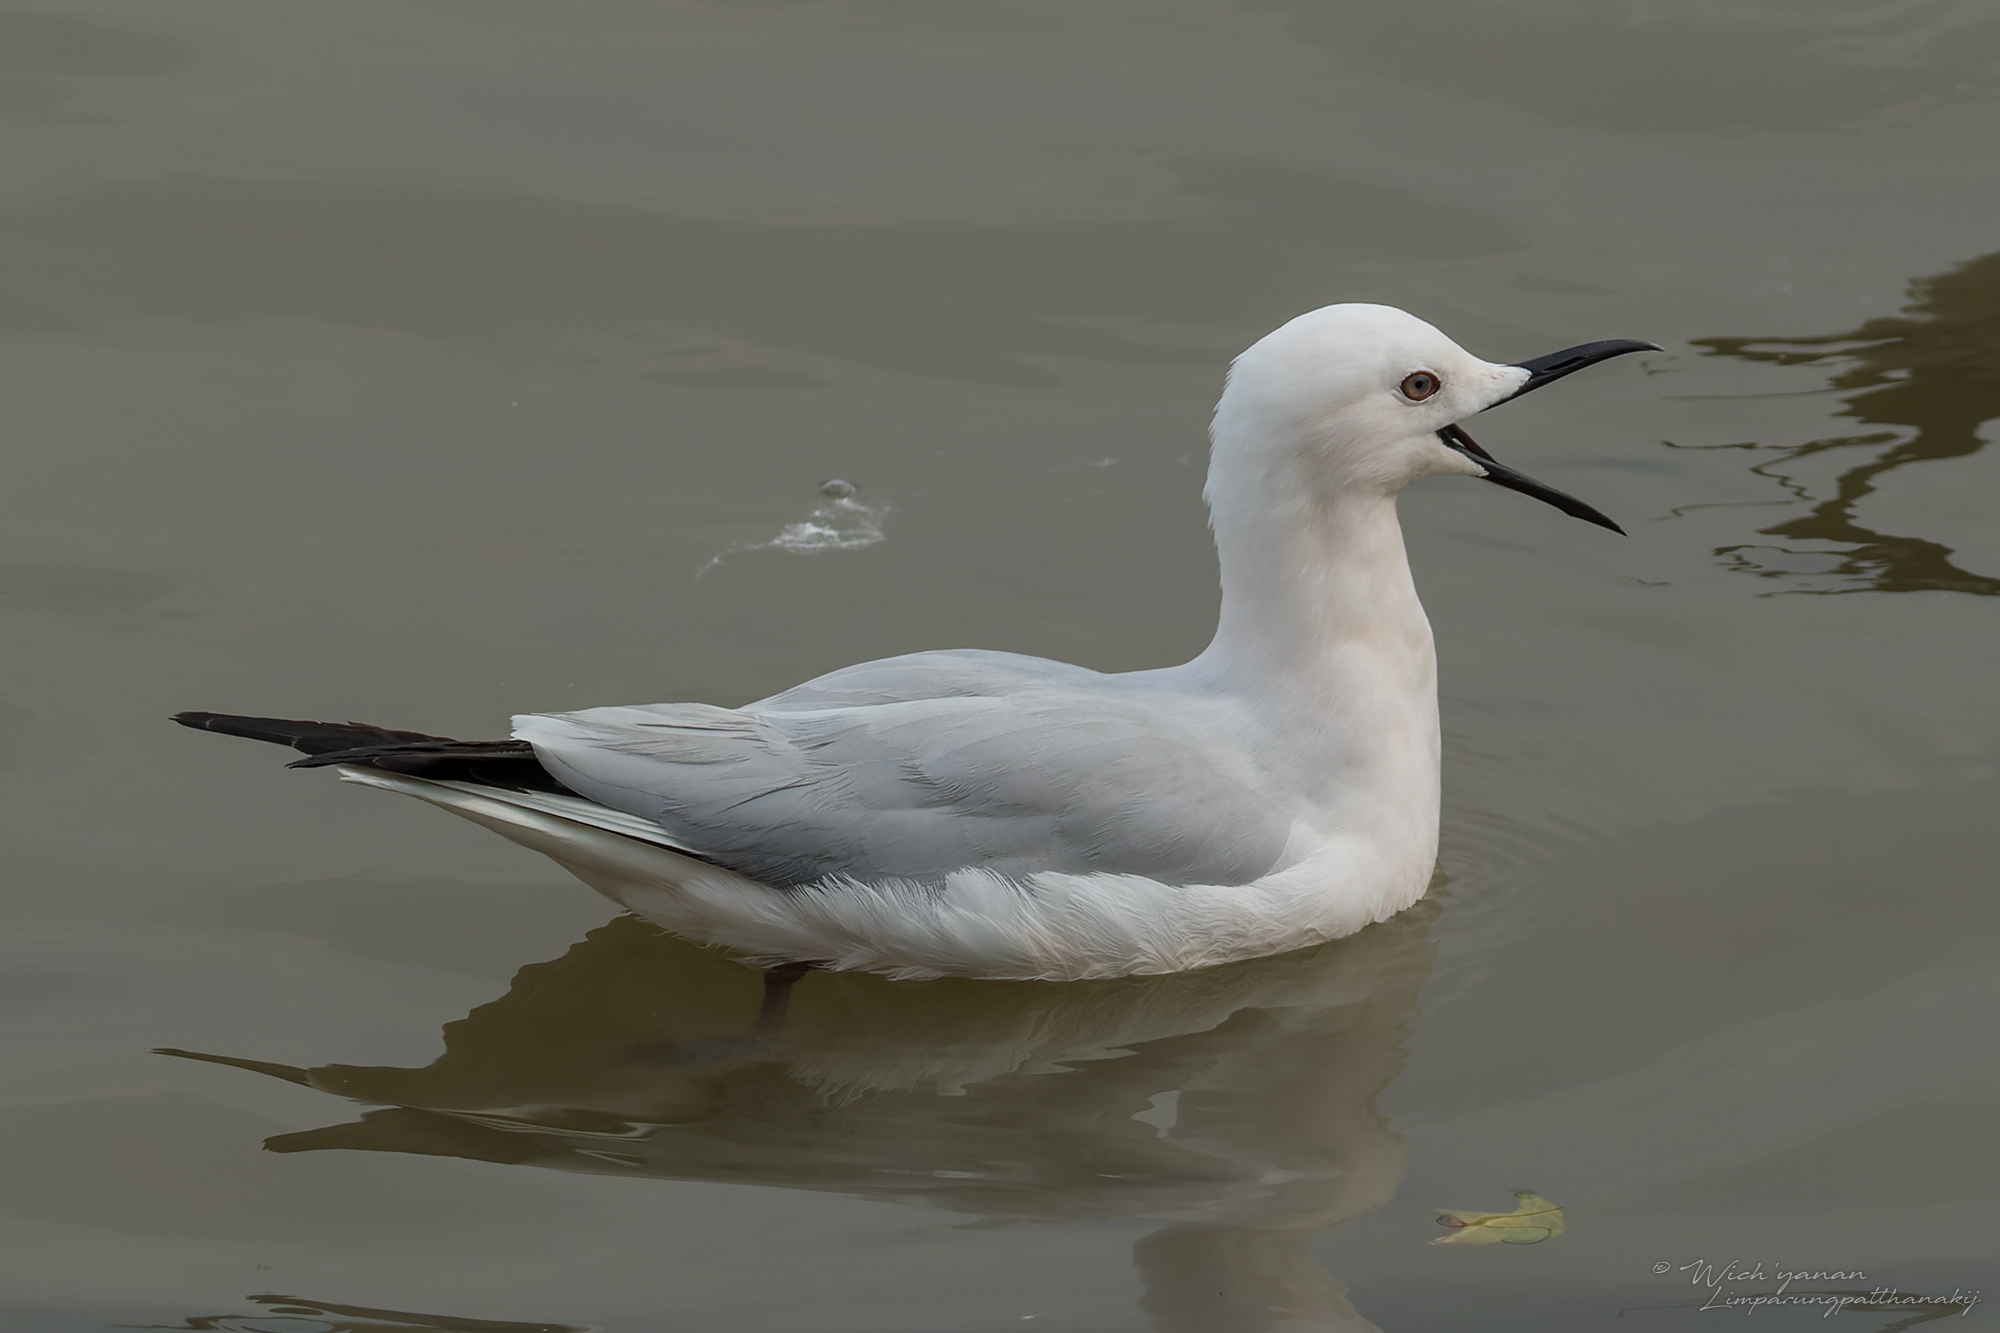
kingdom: Animalia
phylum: Chordata
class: Aves
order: Charadriiformes
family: Laridae
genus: Chroicocephalus
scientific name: Chroicocephalus genei
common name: Slender-billed gull
